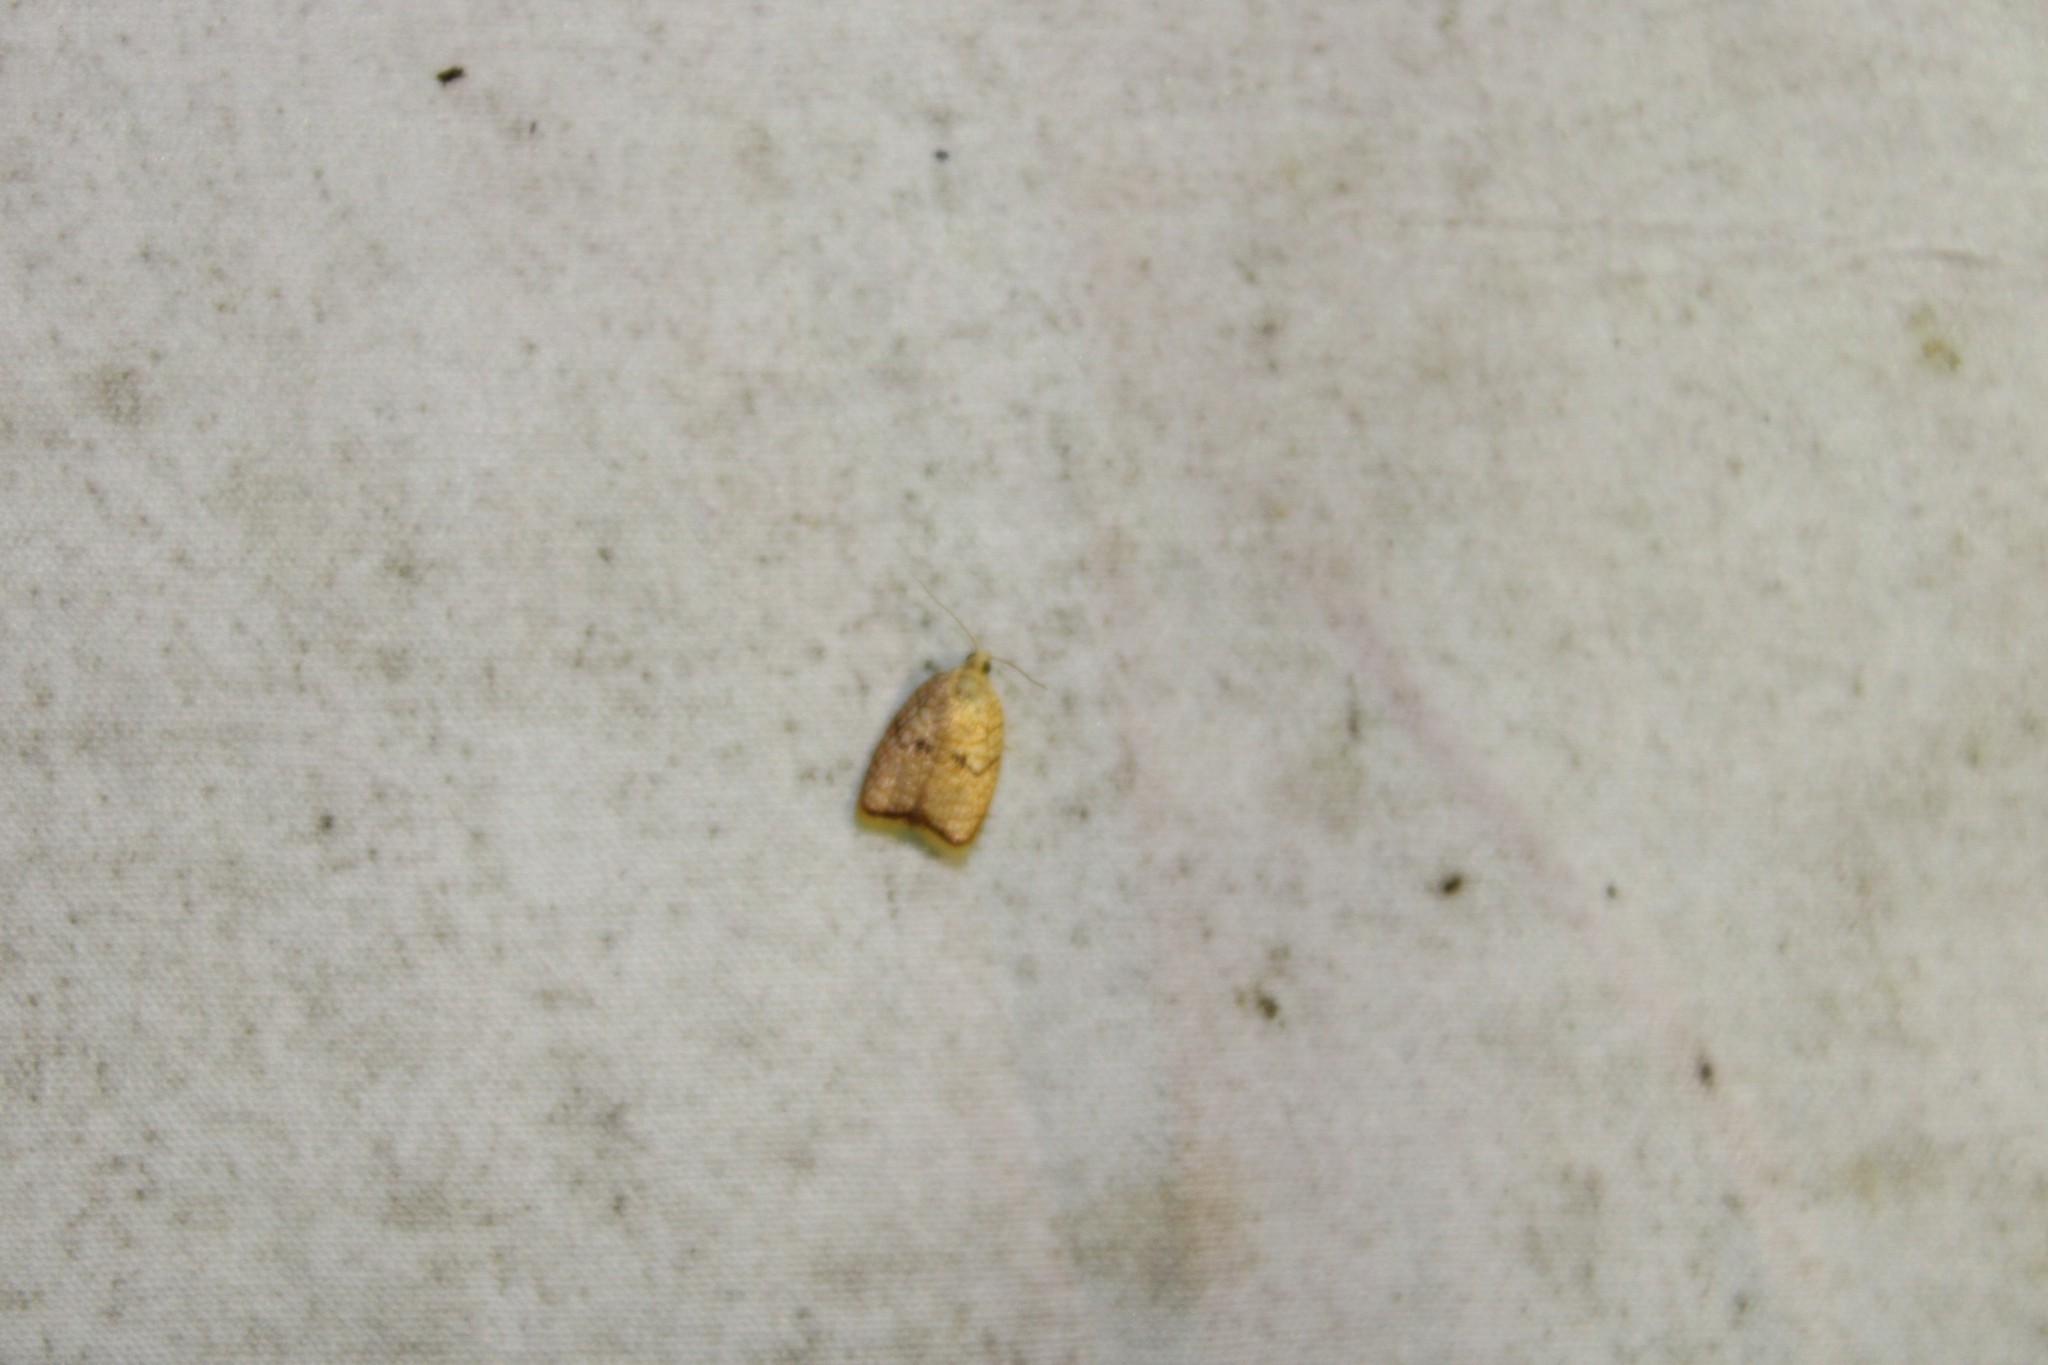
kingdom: Animalia
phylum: Arthropoda
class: Insecta
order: Lepidoptera
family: Tortricidae
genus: Acleris
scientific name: Acleris forsskaleana
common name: Maple button
